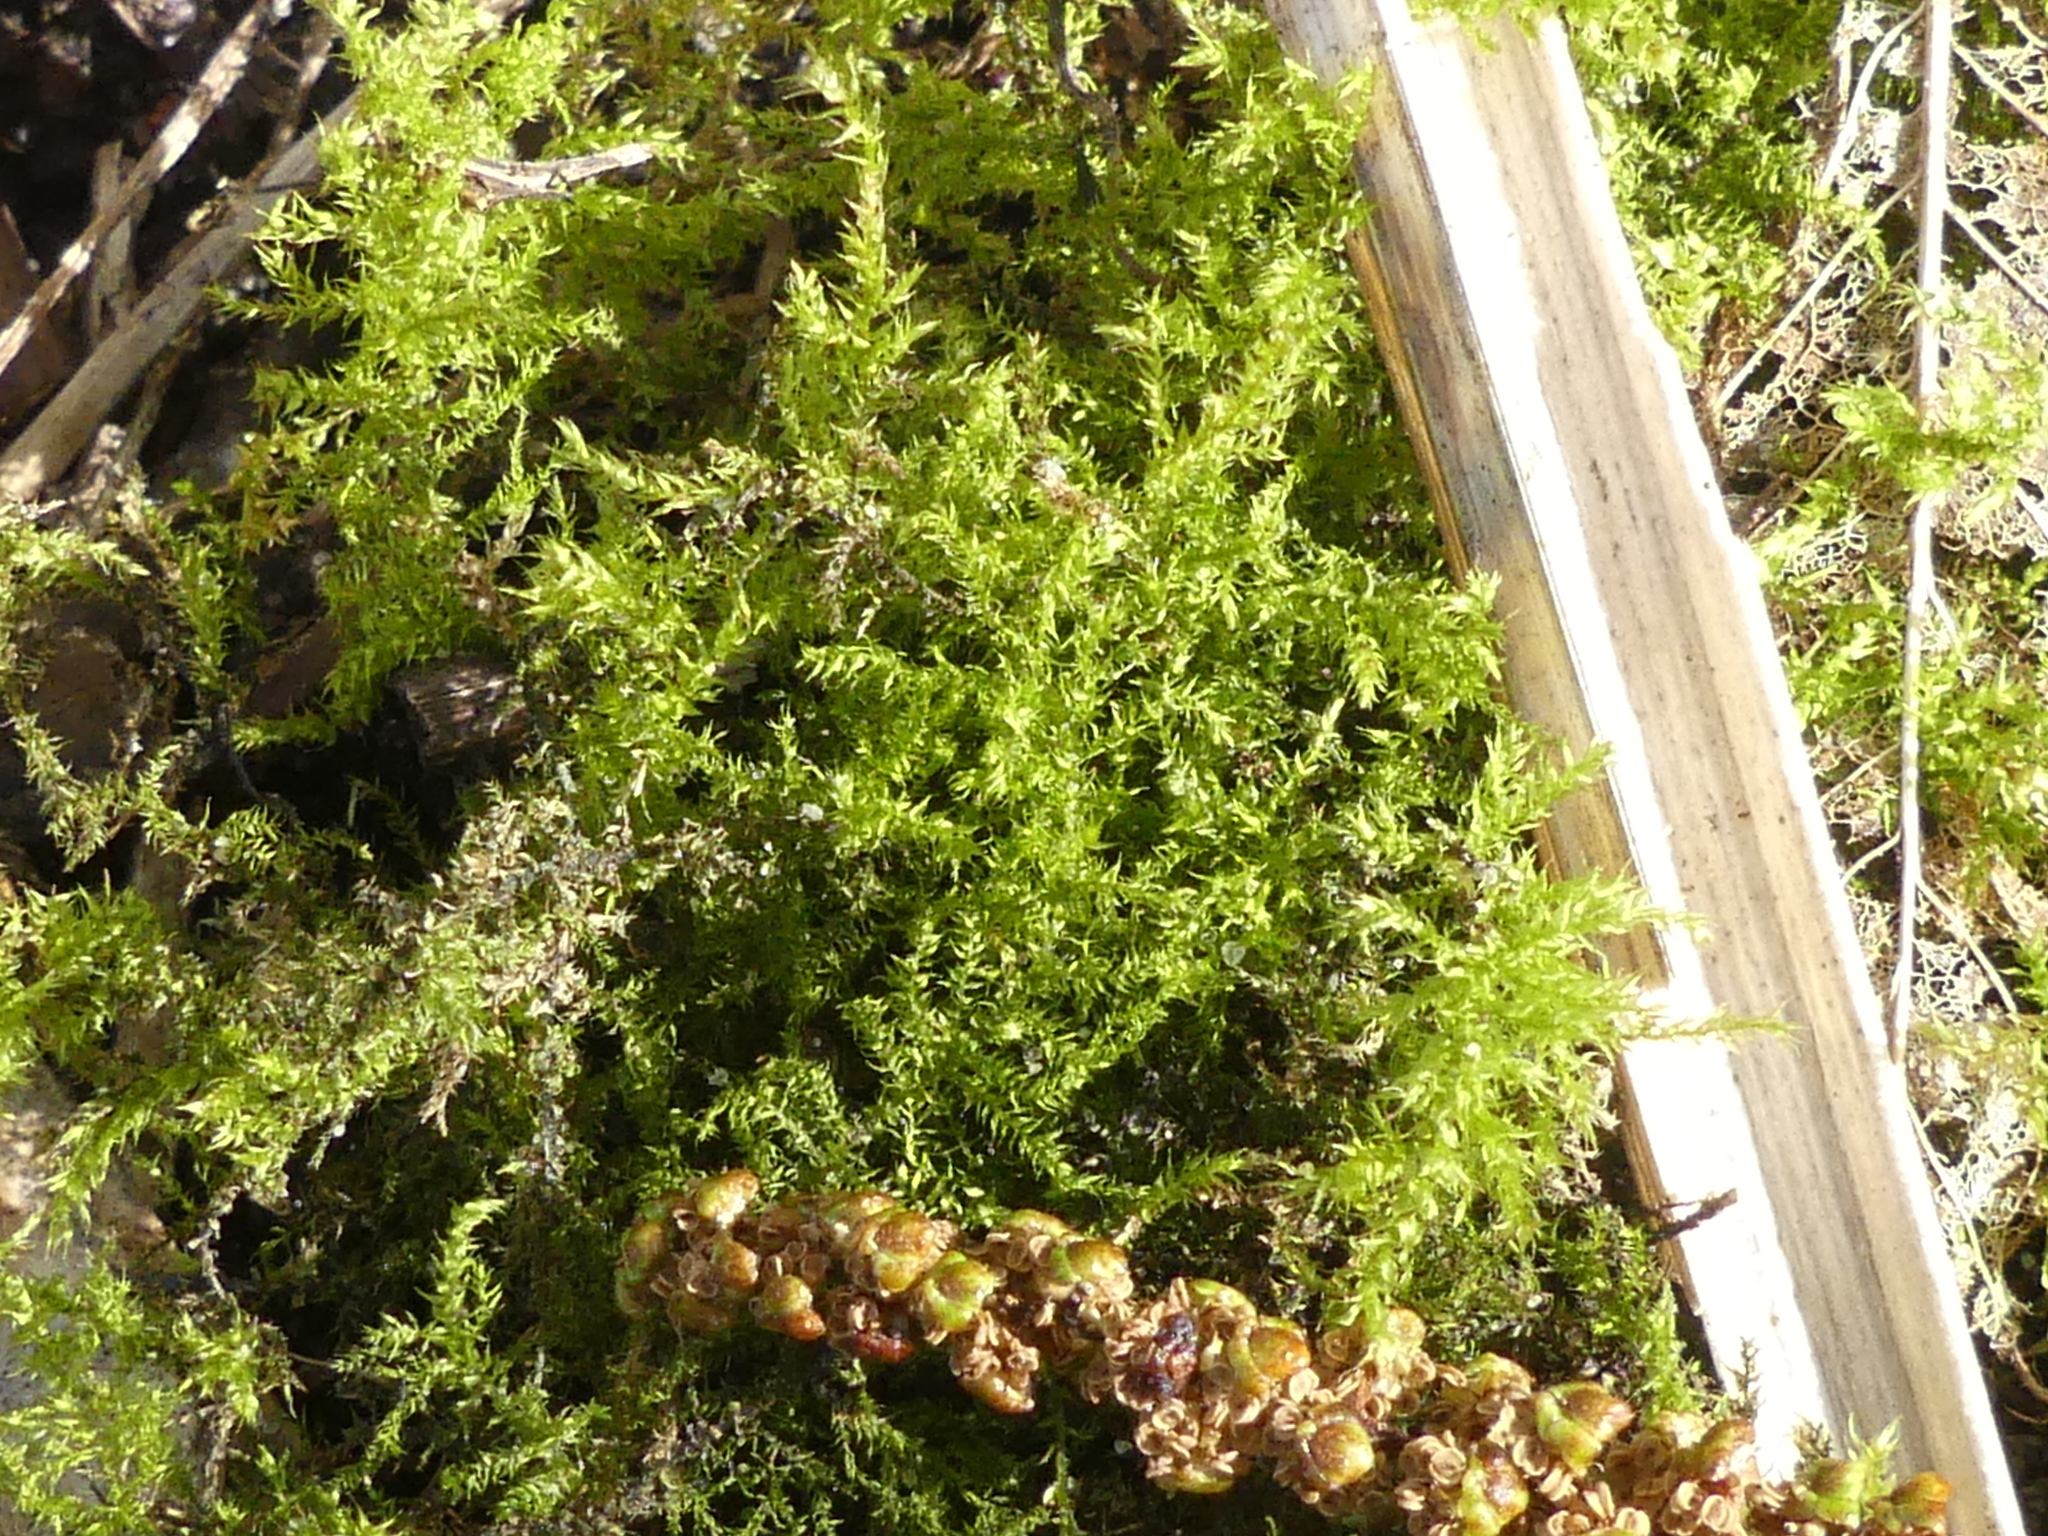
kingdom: Plantae
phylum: Bryophyta
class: Bryopsida
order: Hypnales
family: Brachytheciaceae
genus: Oxyrrhynchium
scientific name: Oxyrrhynchium hians
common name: Spreading beaked moss
